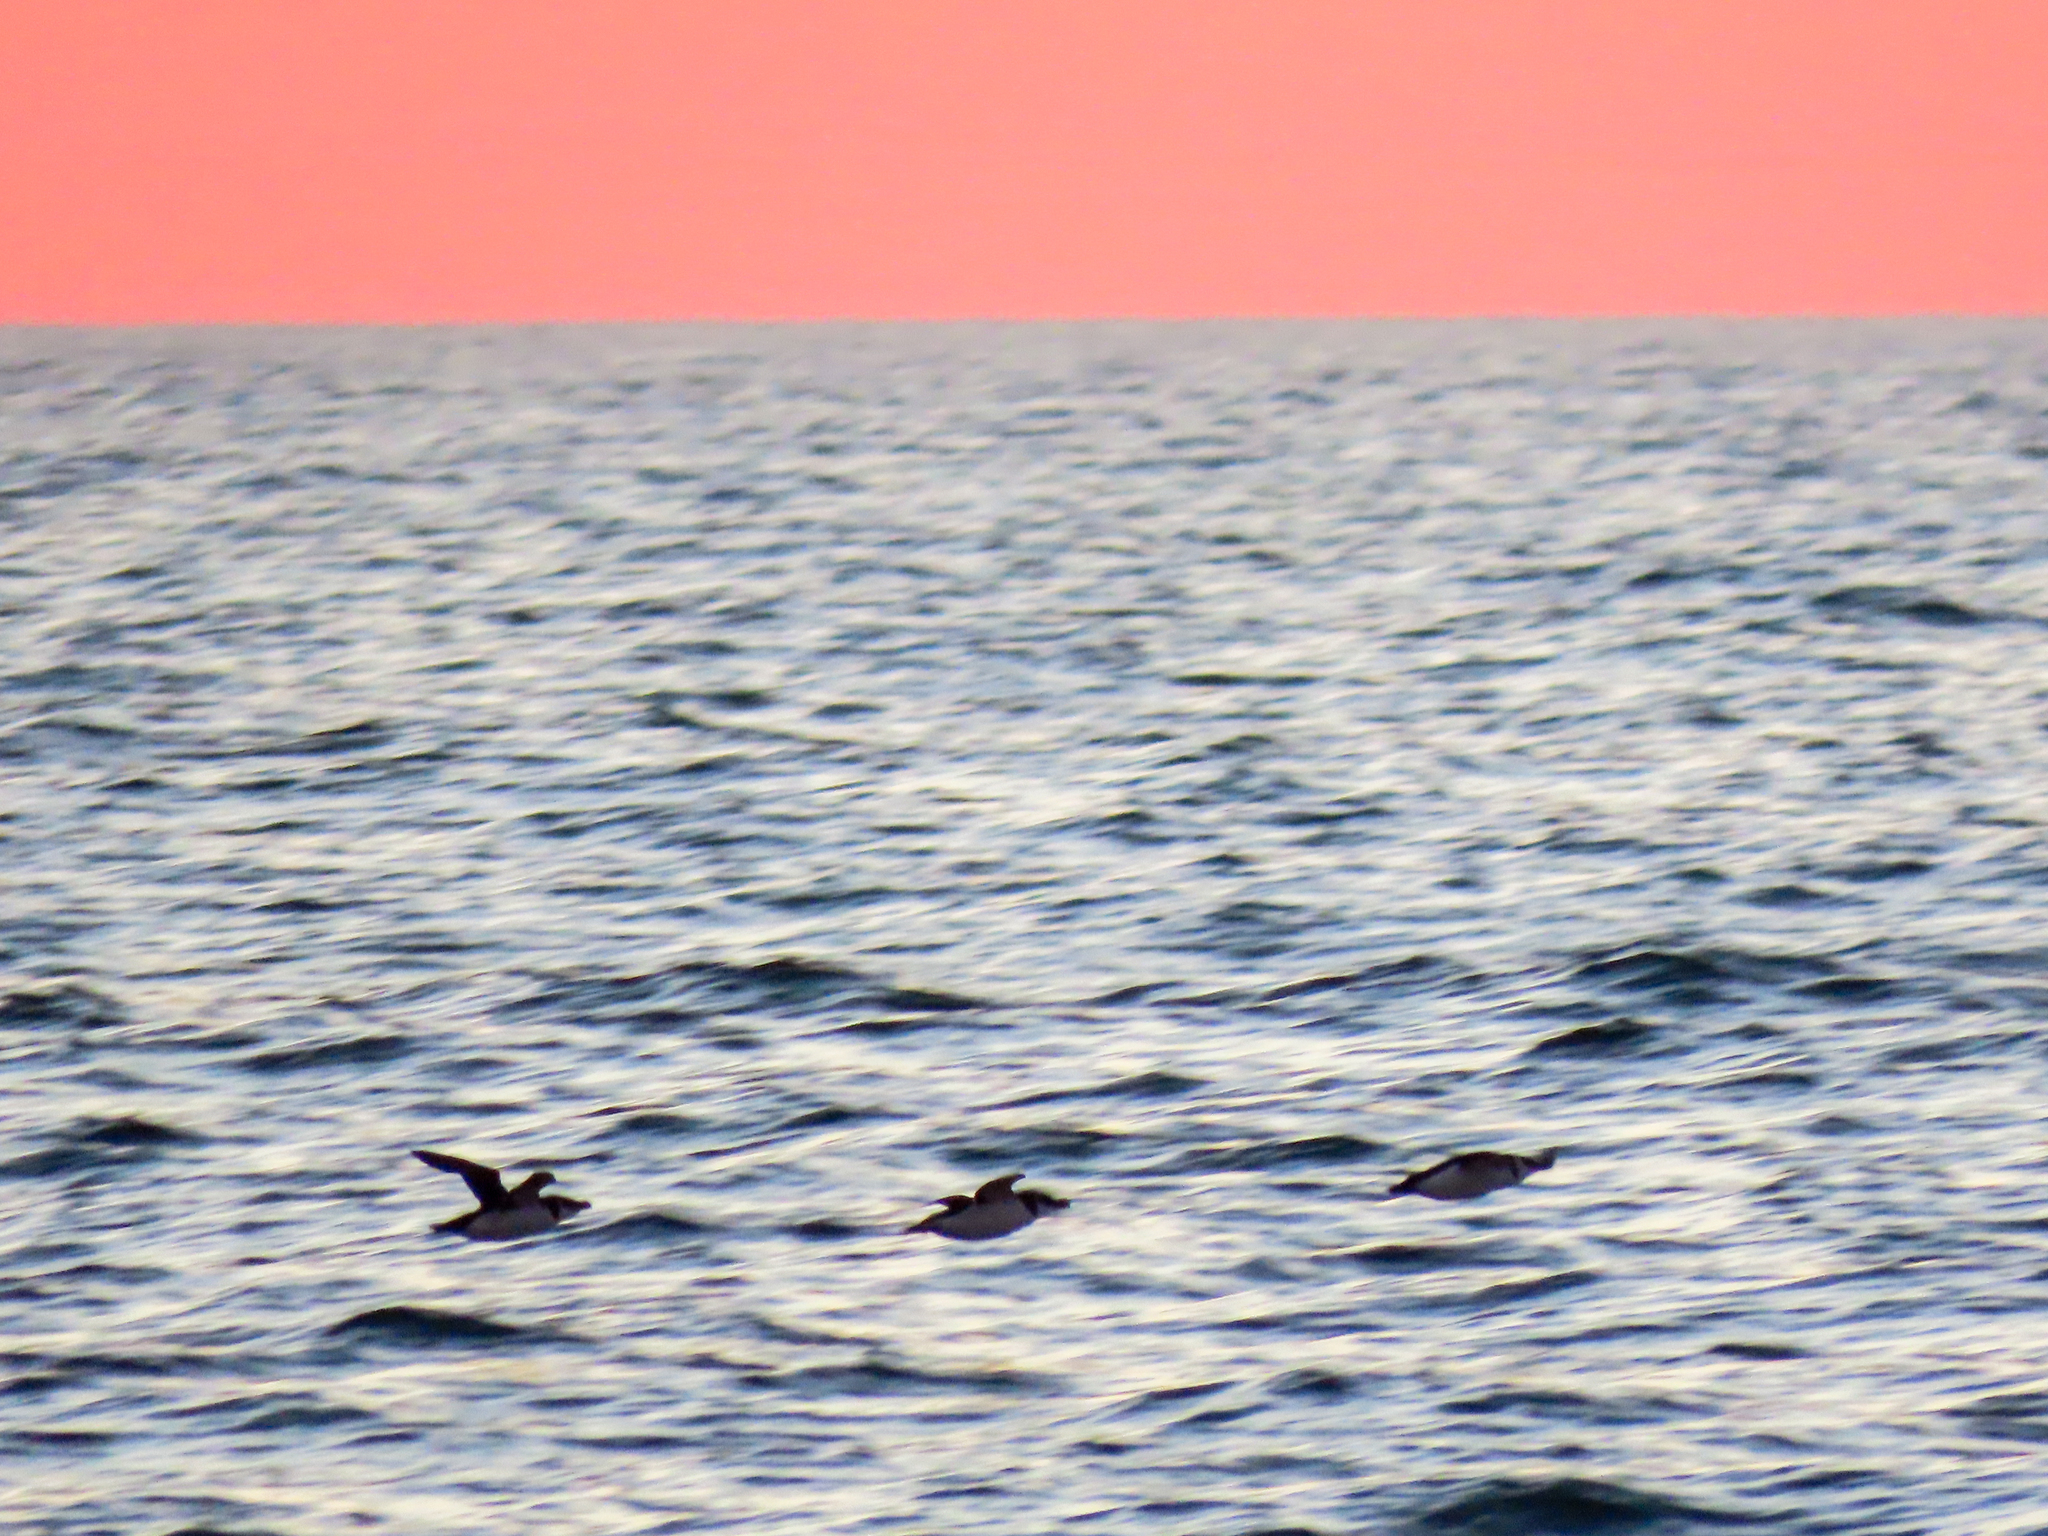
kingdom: Animalia
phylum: Chordata
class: Aves
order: Charadriiformes
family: Alcidae
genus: Alca
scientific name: Alca torda
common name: Razorbill
